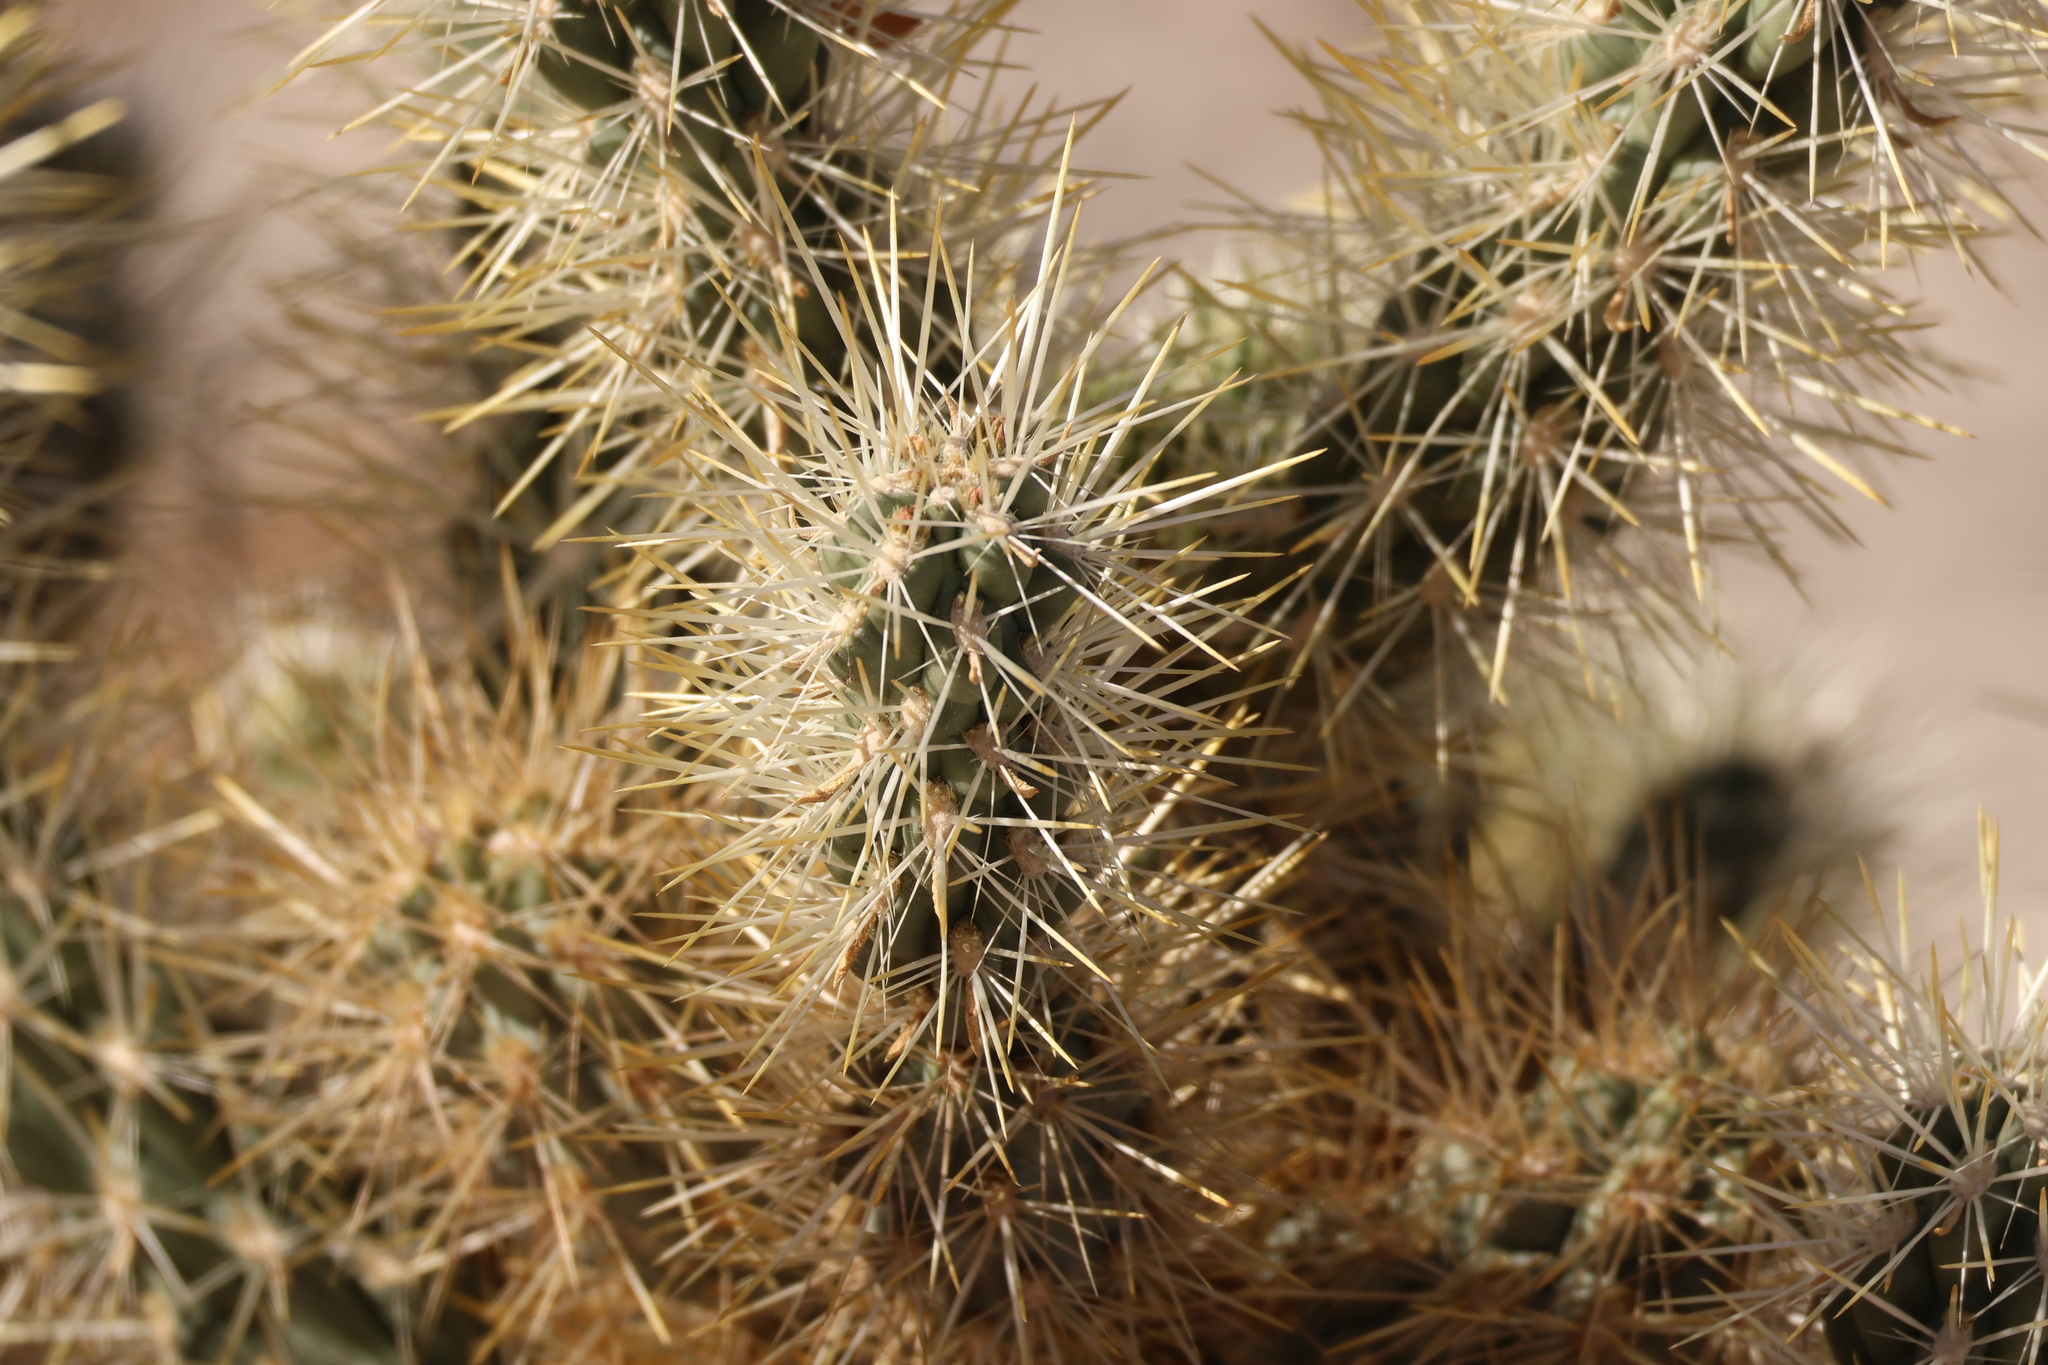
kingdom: Plantae
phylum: Tracheophyta
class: Magnoliopsida
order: Caryophyllales
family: Cactaceae
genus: Cylindropuntia
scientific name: Cylindropuntia echinocarpa
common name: Ground cholla
